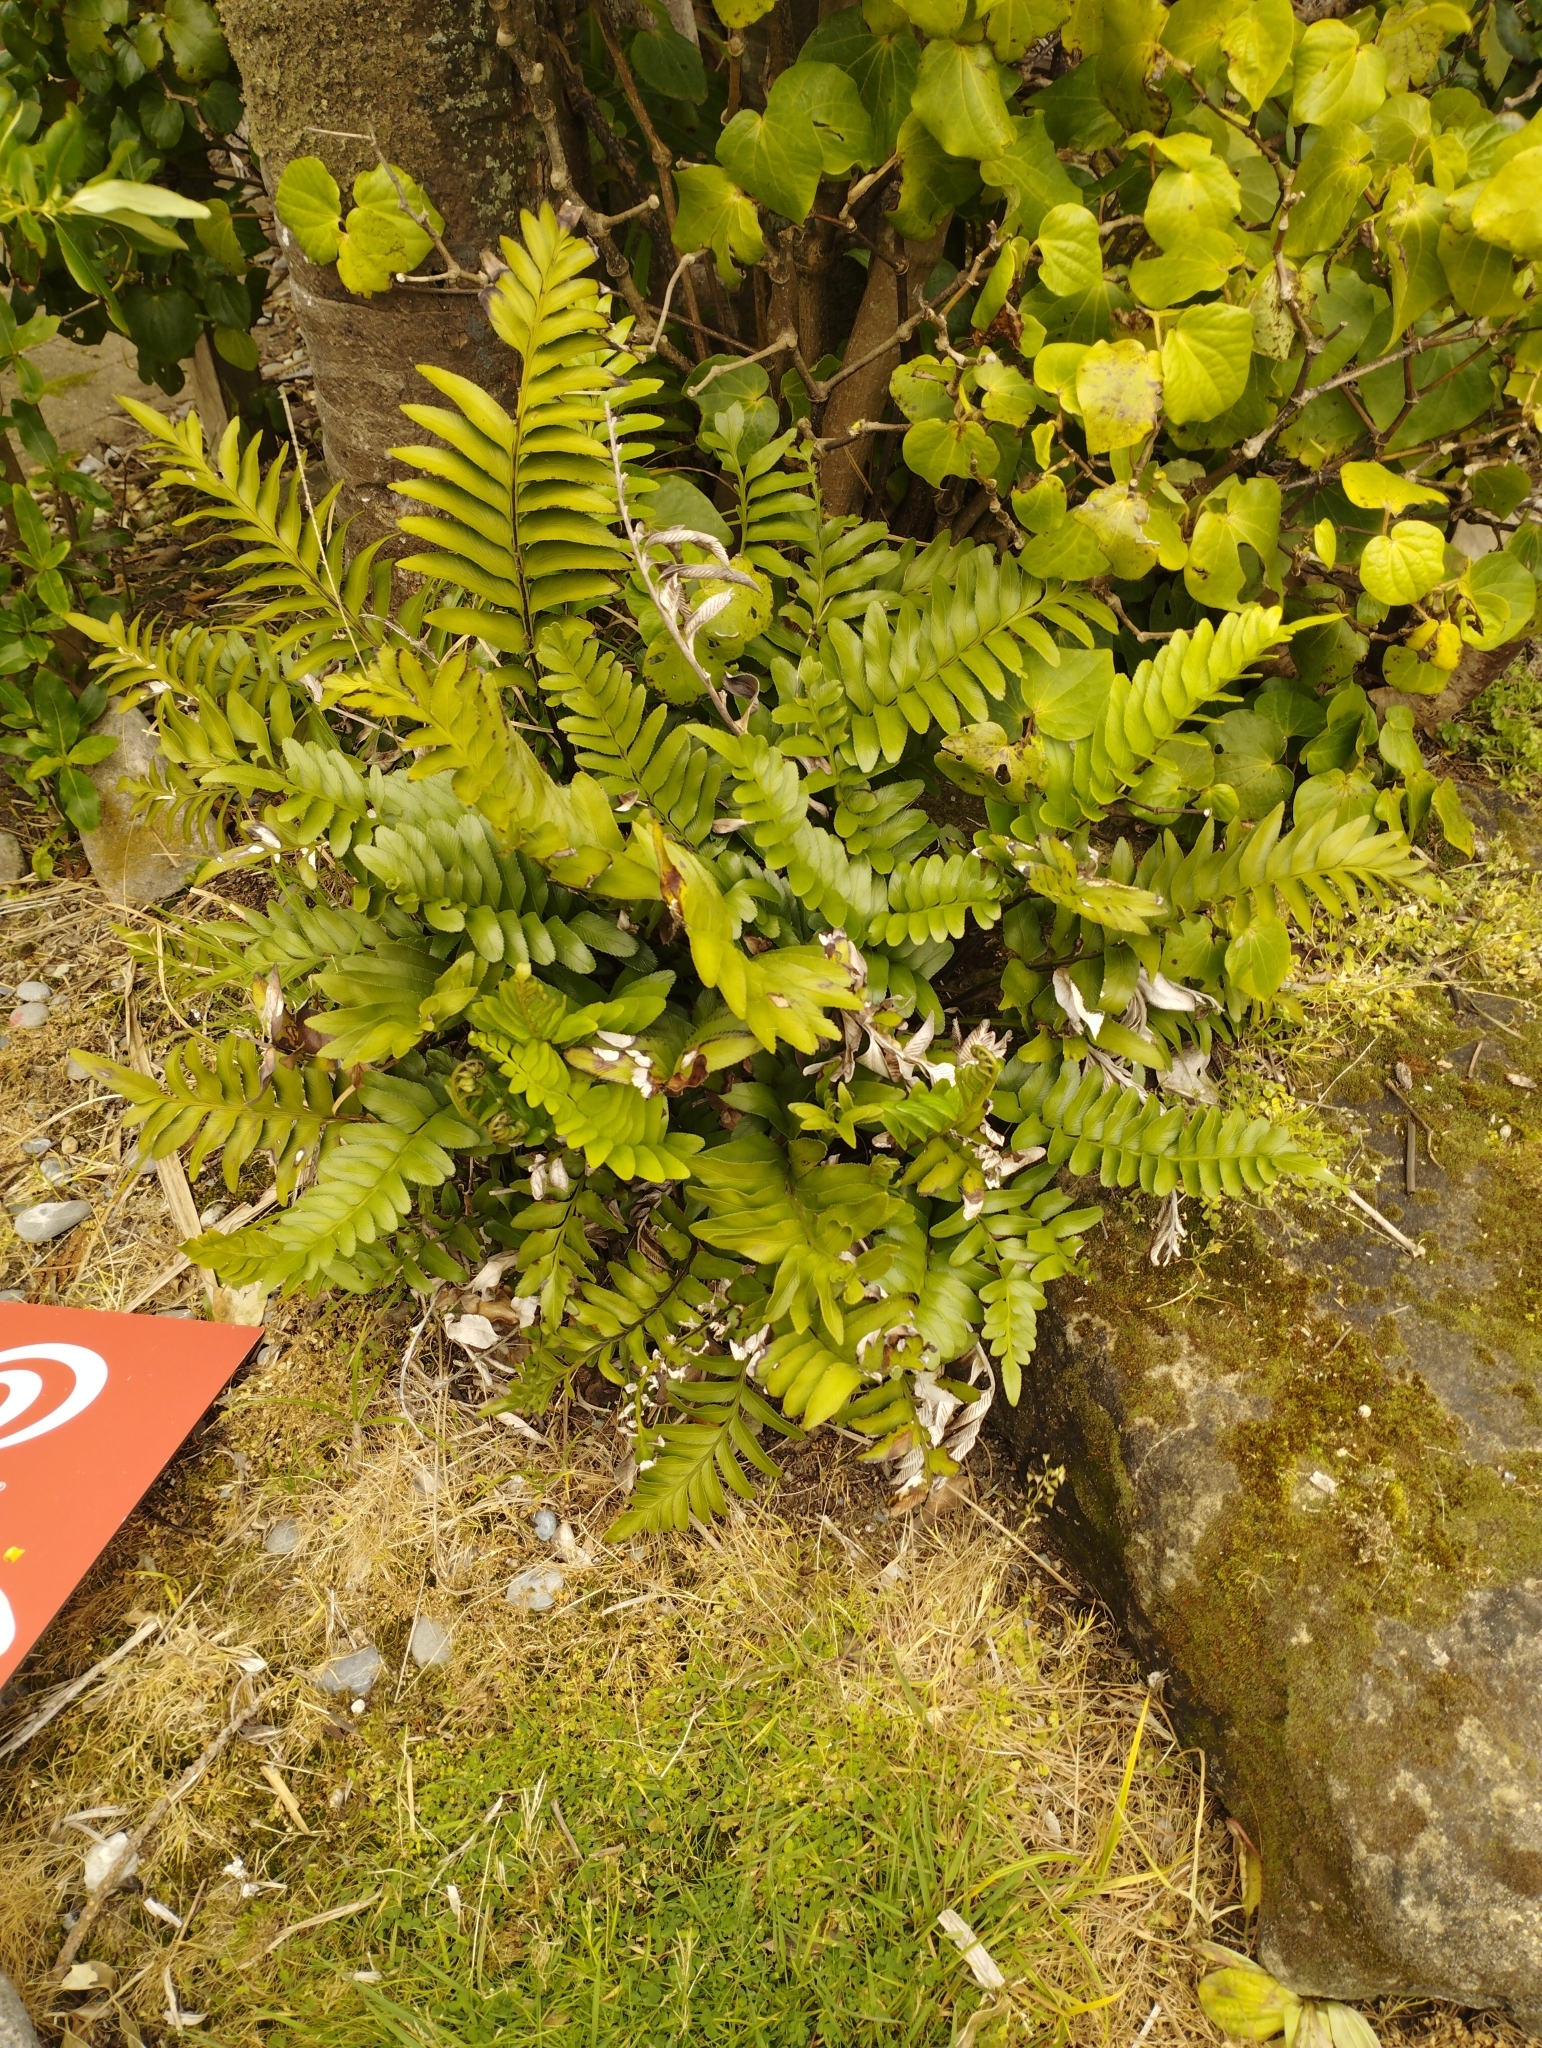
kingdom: Plantae
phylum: Tracheophyta
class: Polypodiopsida
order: Polypodiales
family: Aspleniaceae
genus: Asplenium
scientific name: Asplenium obtusatum
